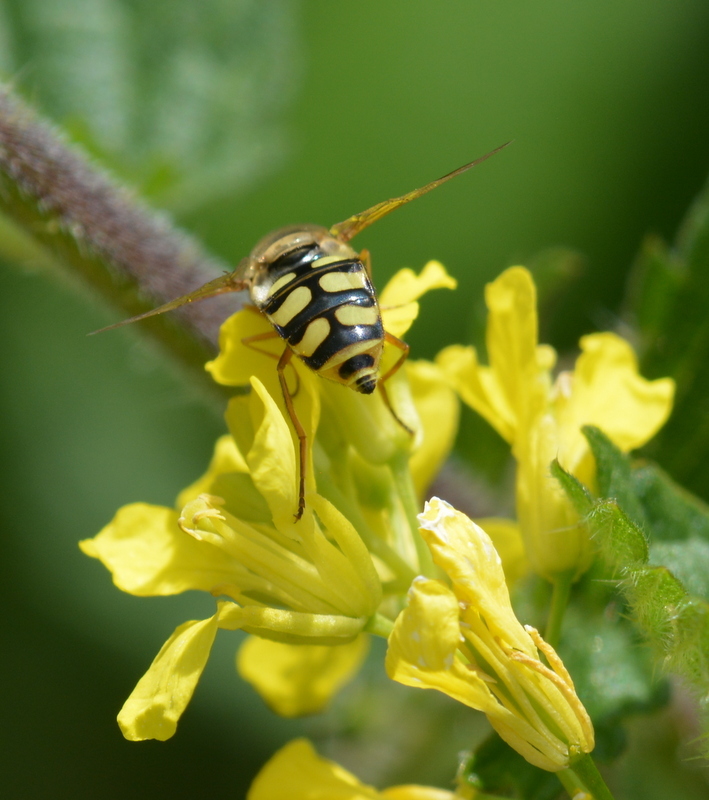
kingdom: Animalia
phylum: Arthropoda
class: Insecta
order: Diptera
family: Syrphidae
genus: Eupeodes
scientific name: Eupeodes corollae
